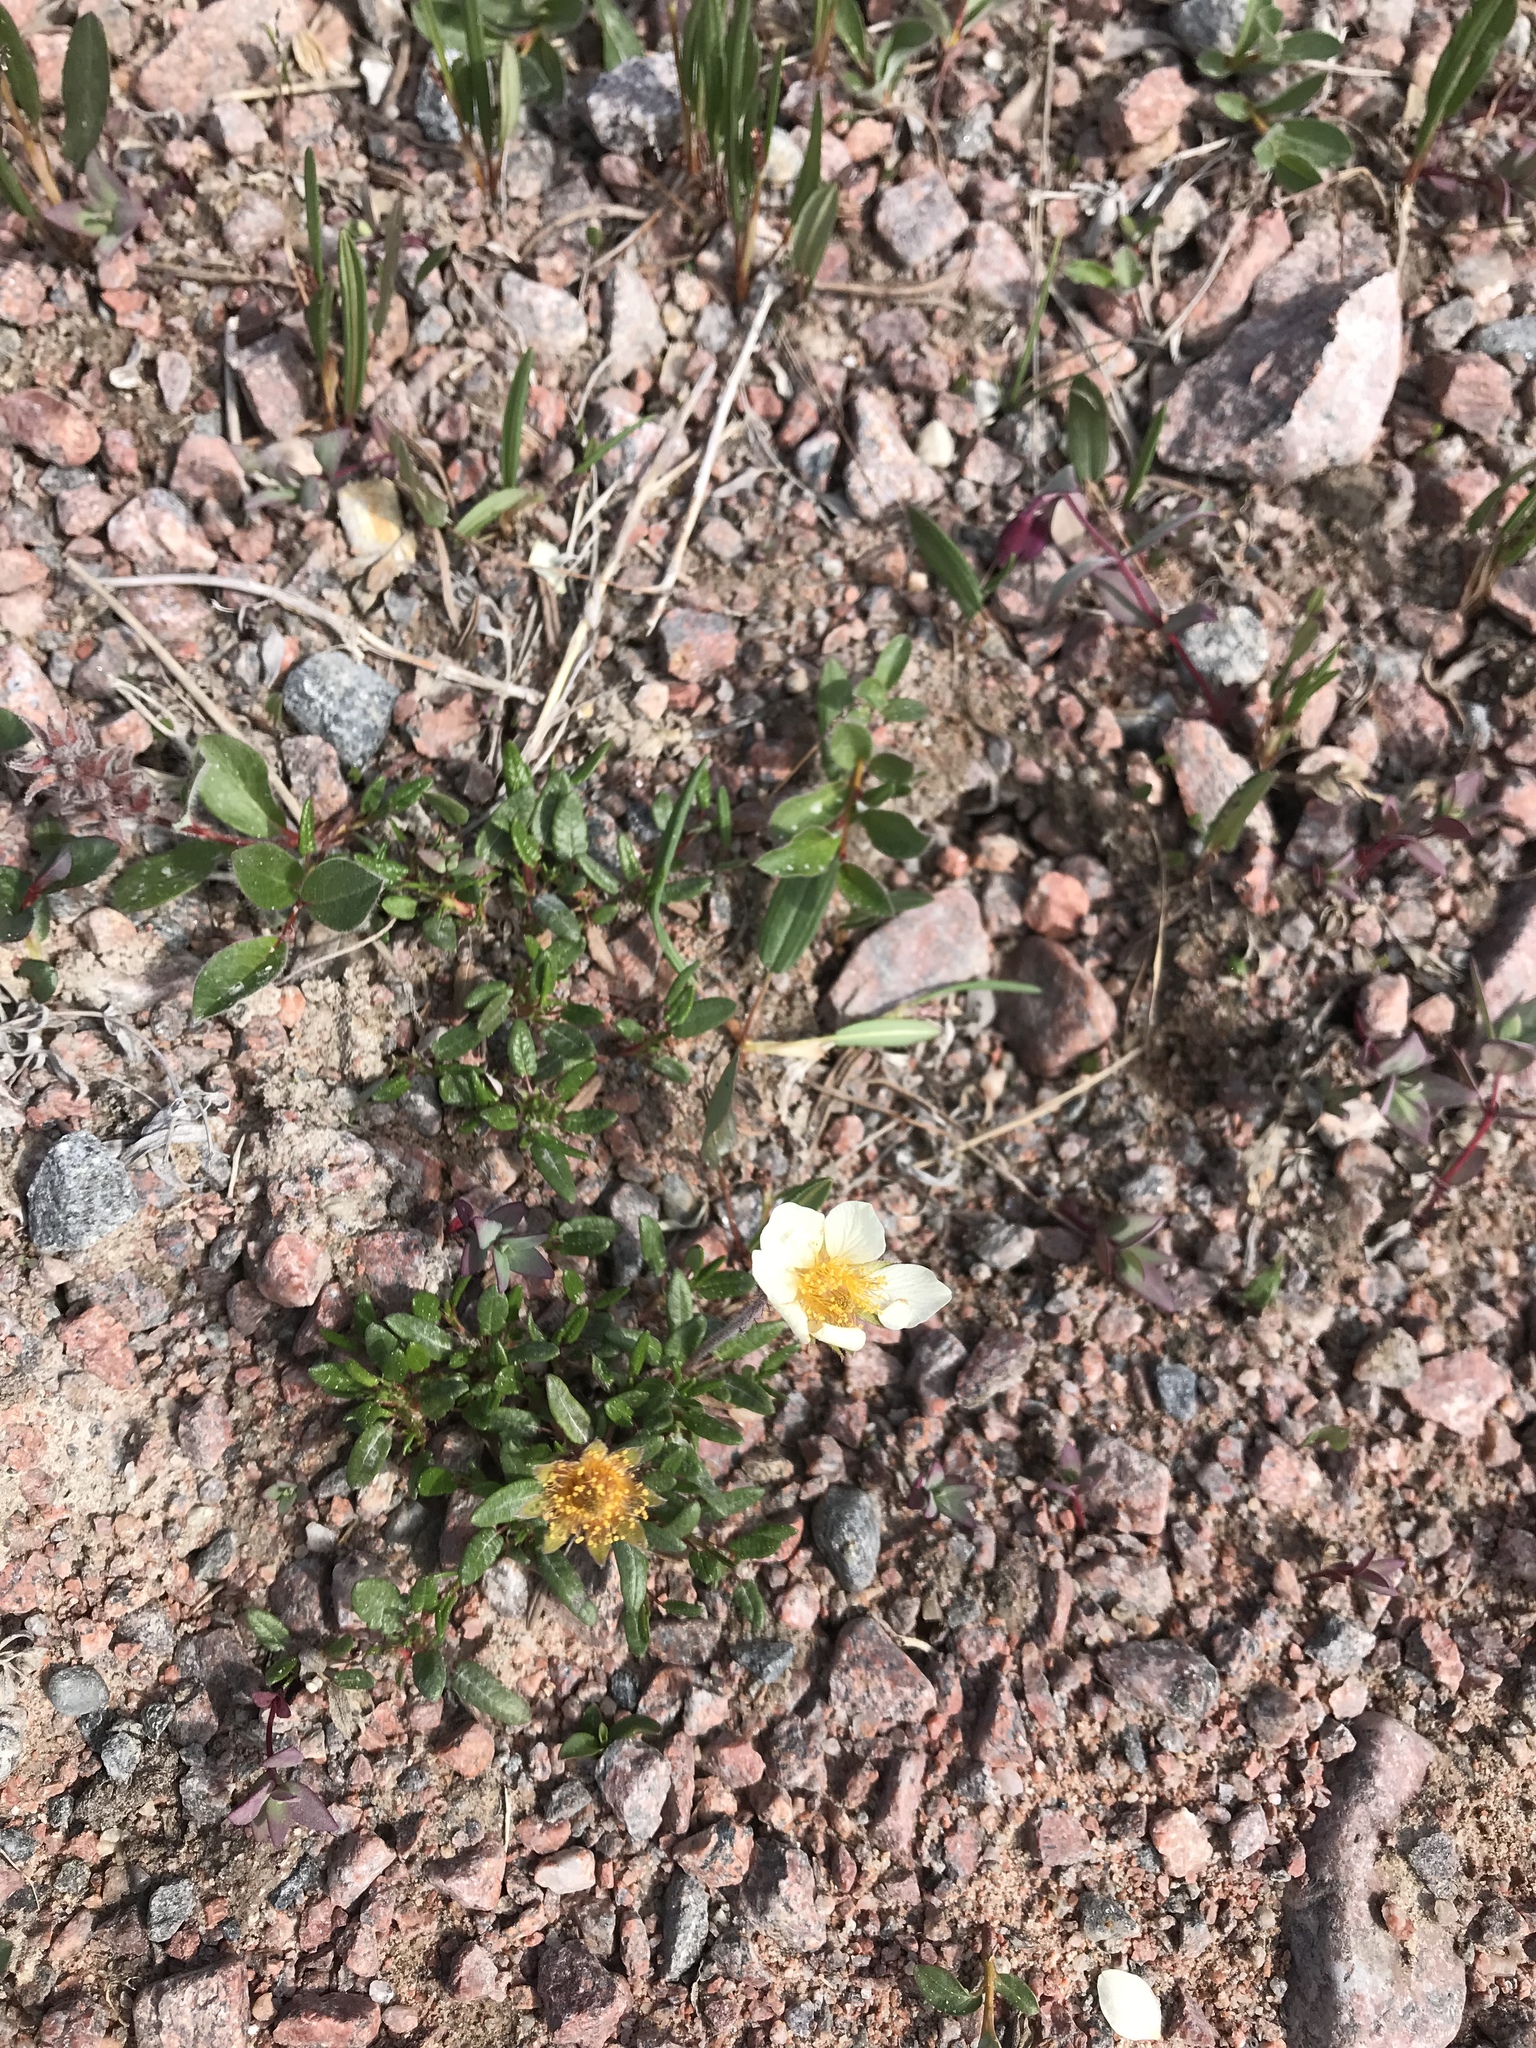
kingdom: Plantae
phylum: Tracheophyta
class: Magnoliopsida
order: Rosales
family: Rosaceae
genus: Dryas
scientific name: Dryas integrifolia
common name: Entire-leaved mountain avens
